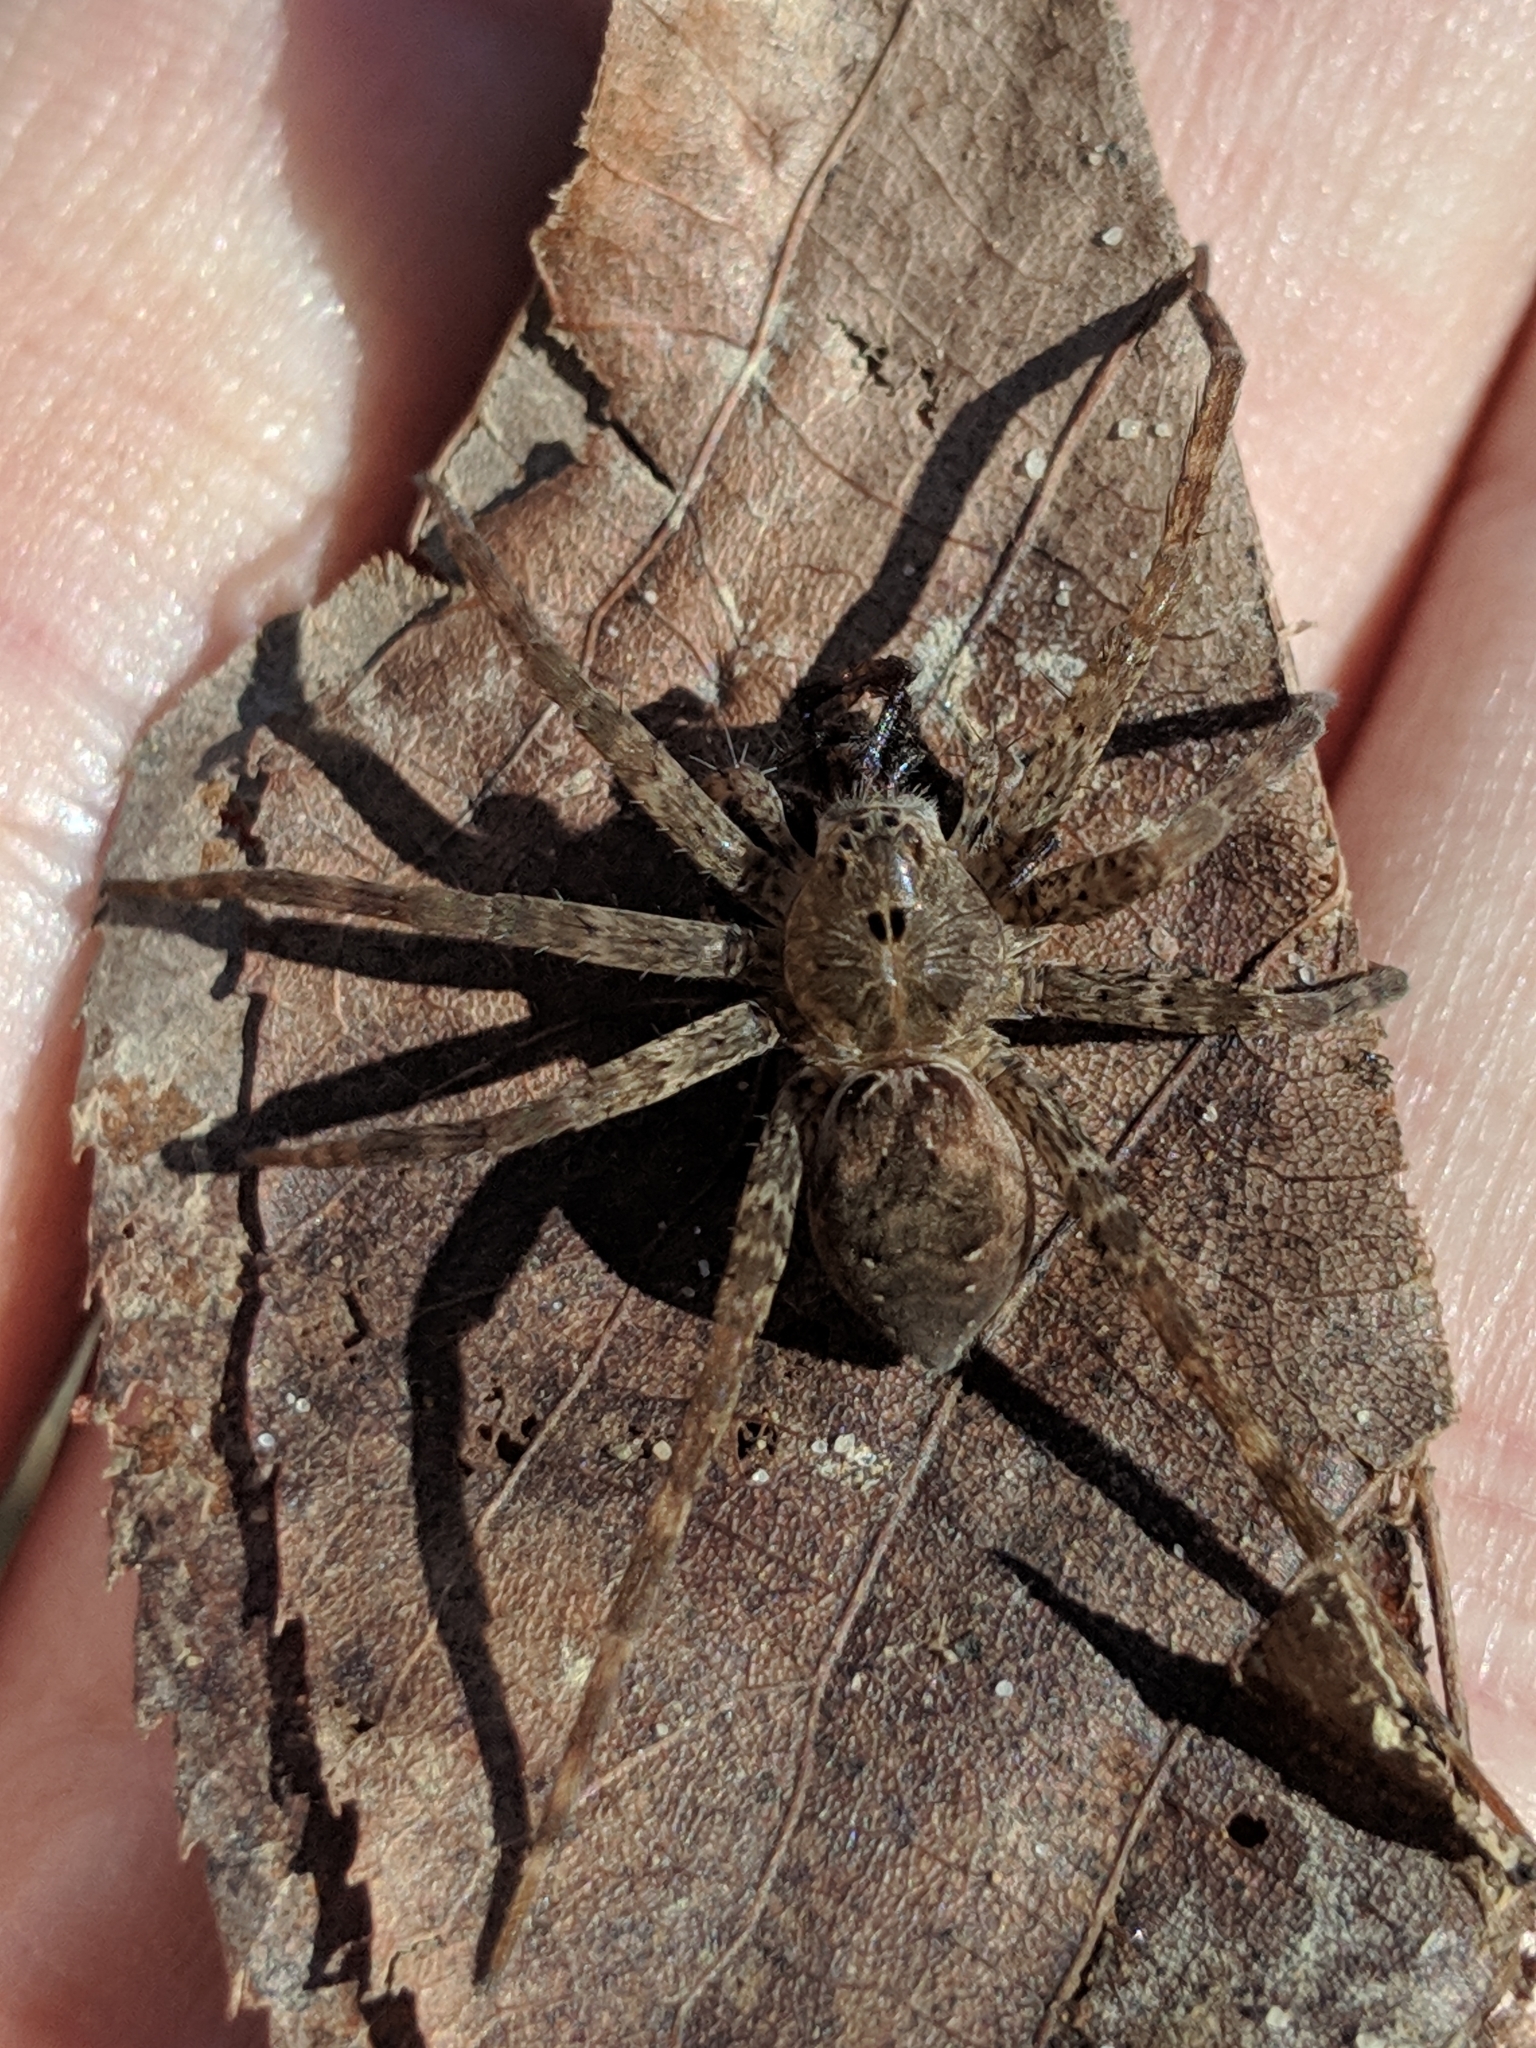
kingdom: Animalia
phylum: Arthropoda
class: Arachnida
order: Araneae
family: Pisauridae
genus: Dolomedes
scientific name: Dolomedes vittatus
